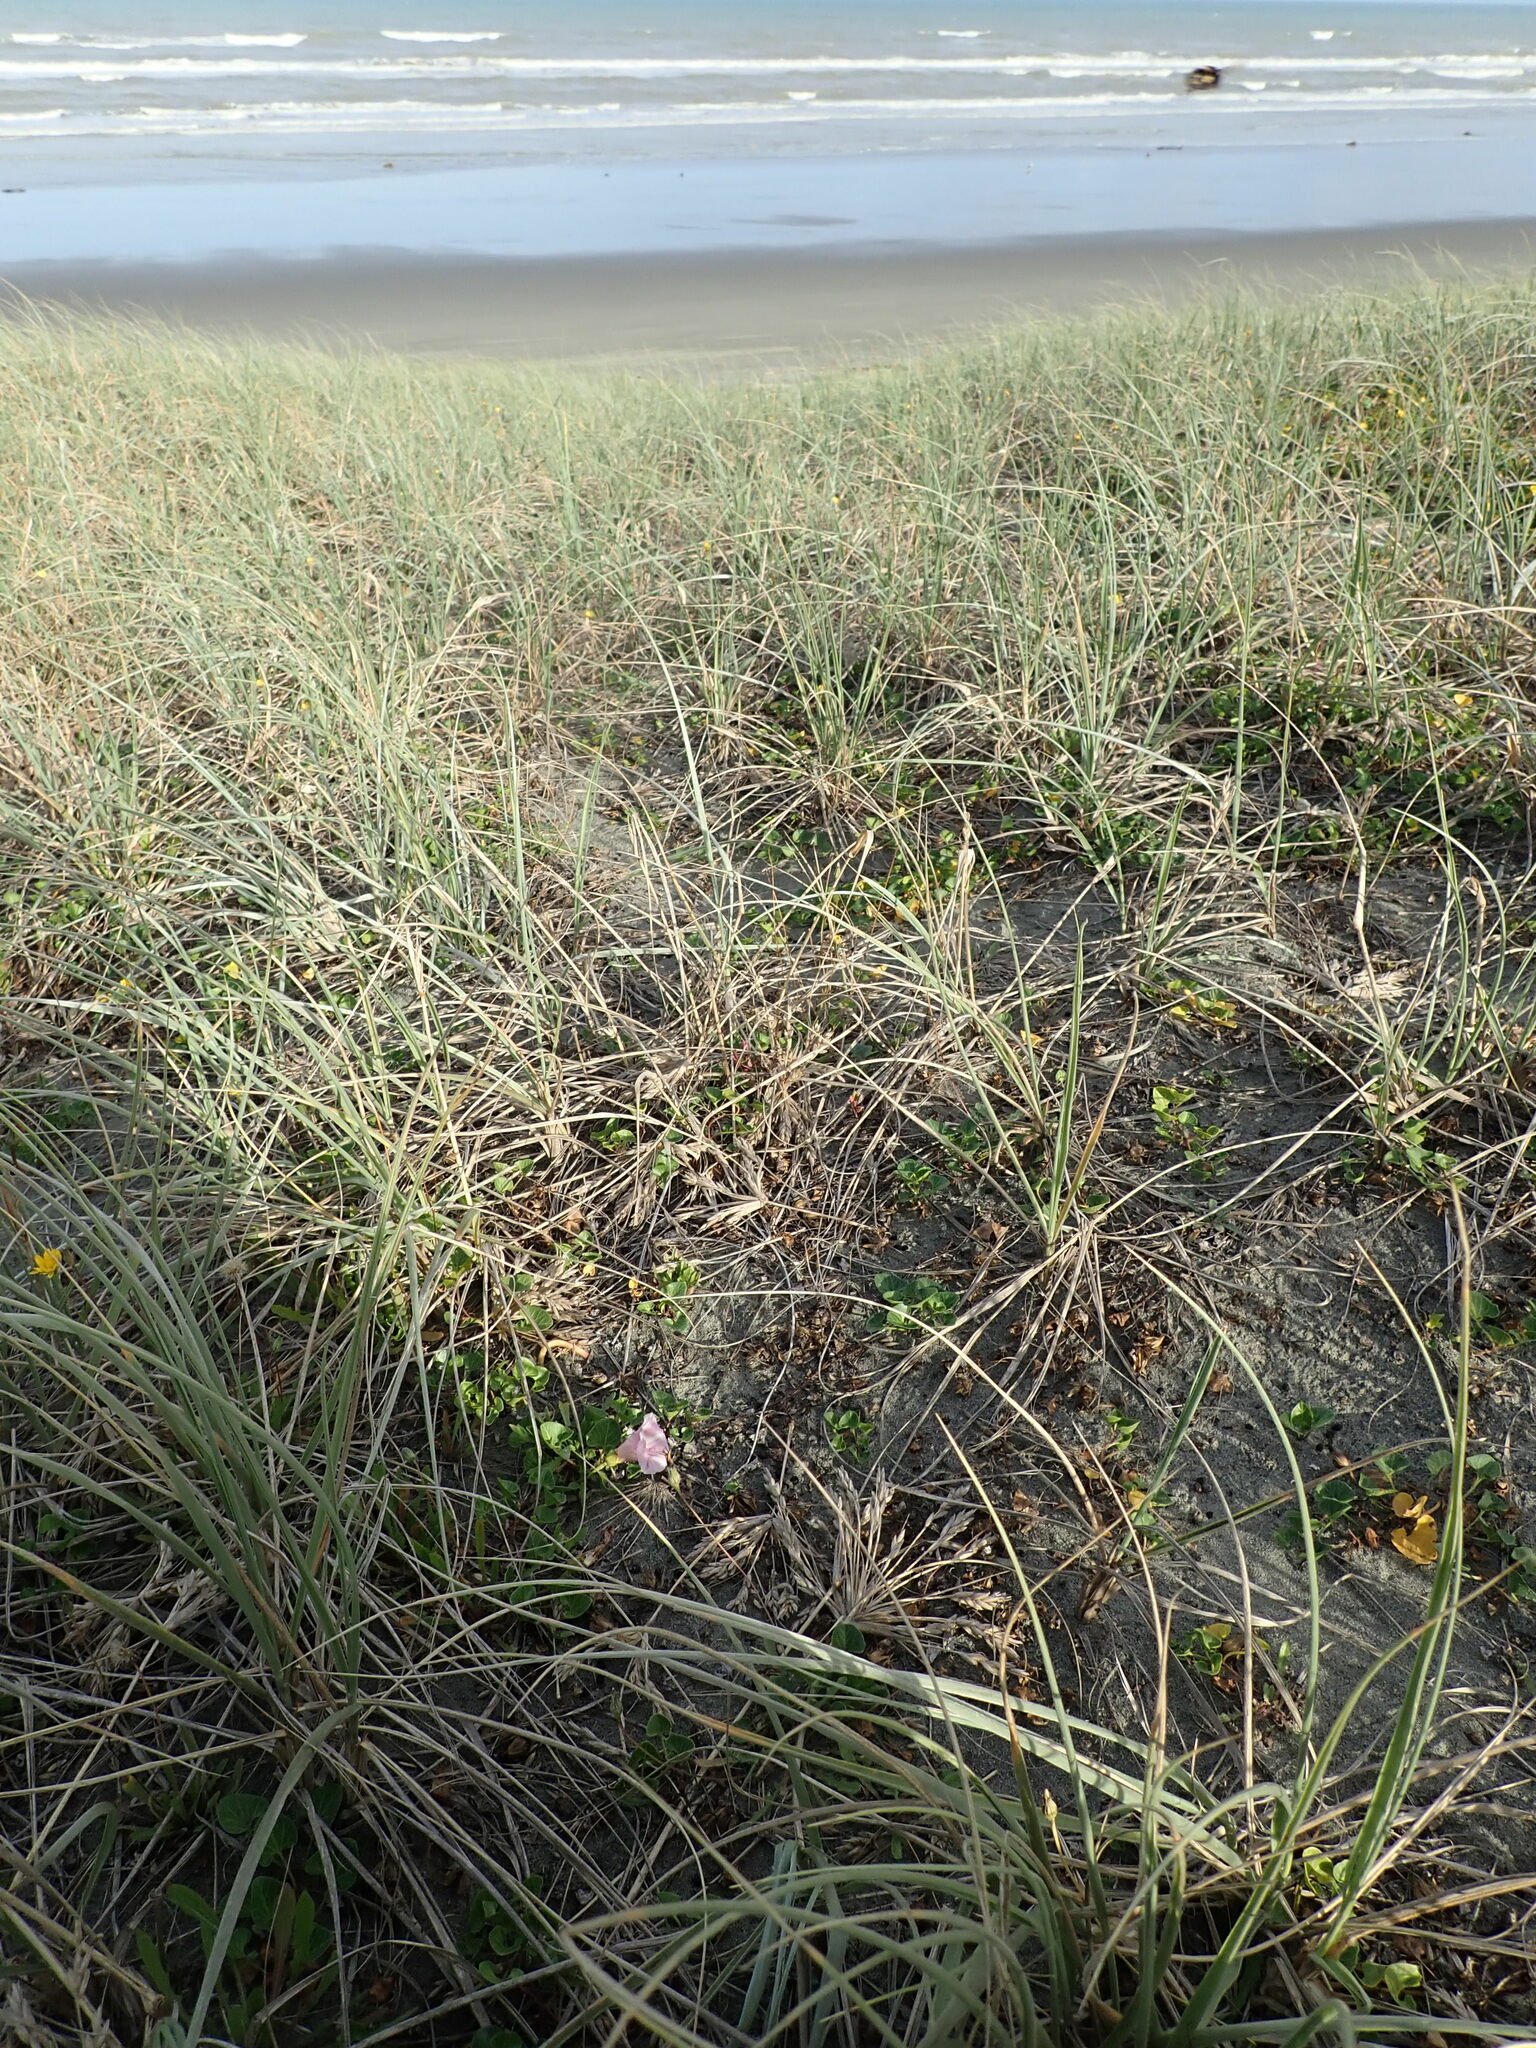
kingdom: Plantae
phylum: Tracheophyta
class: Magnoliopsida
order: Solanales
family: Convolvulaceae
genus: Calystegia
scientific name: Calystegia soldanella
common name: Sea bindweed
